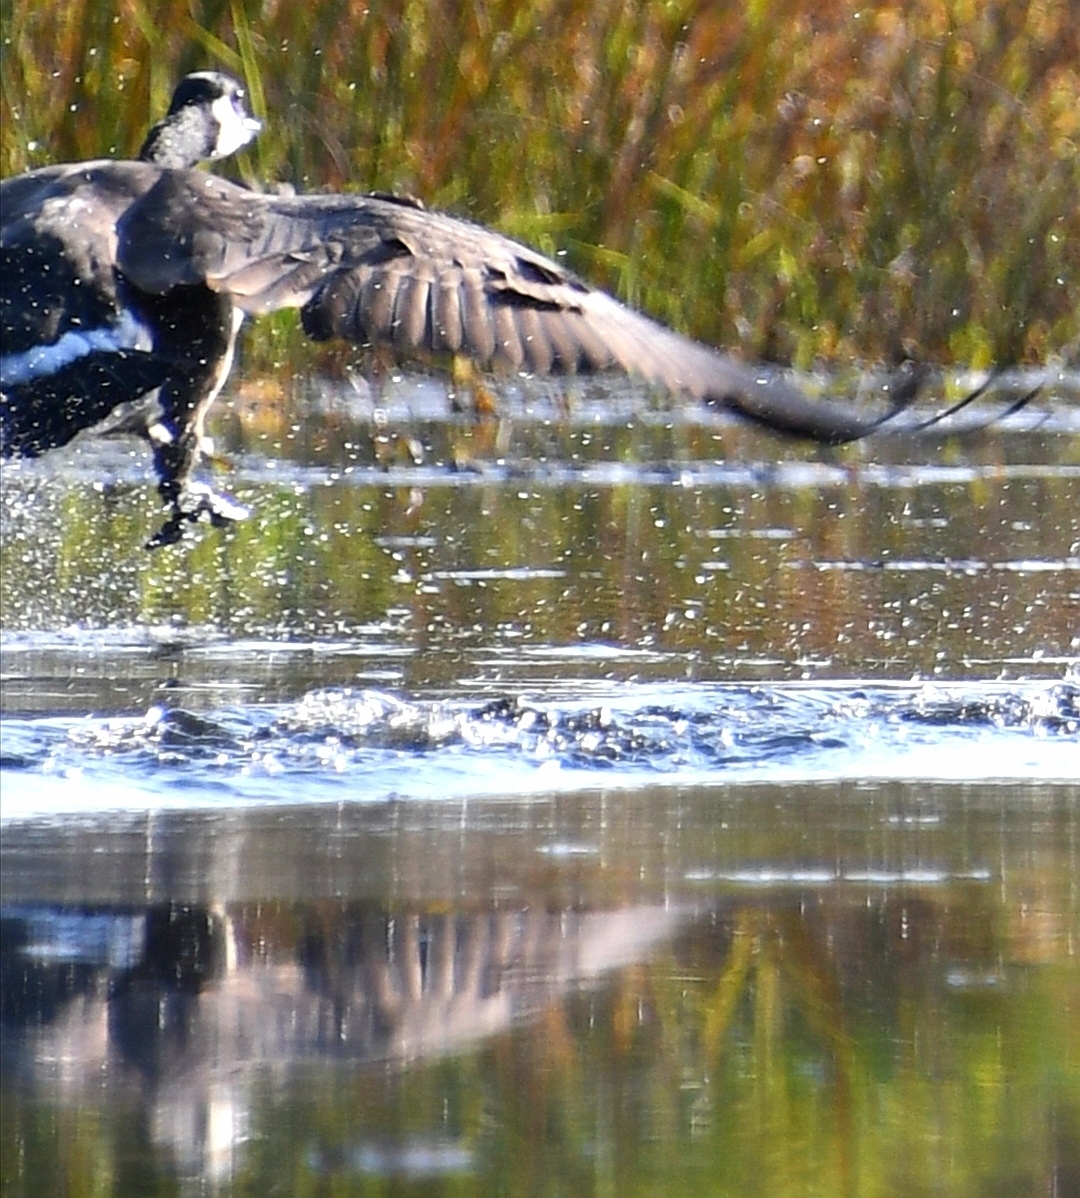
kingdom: Animalia
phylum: Chordata
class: Aves
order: Anseriformes
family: Anatidae
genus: Branta
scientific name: Branta canadensis
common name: Canada goose
